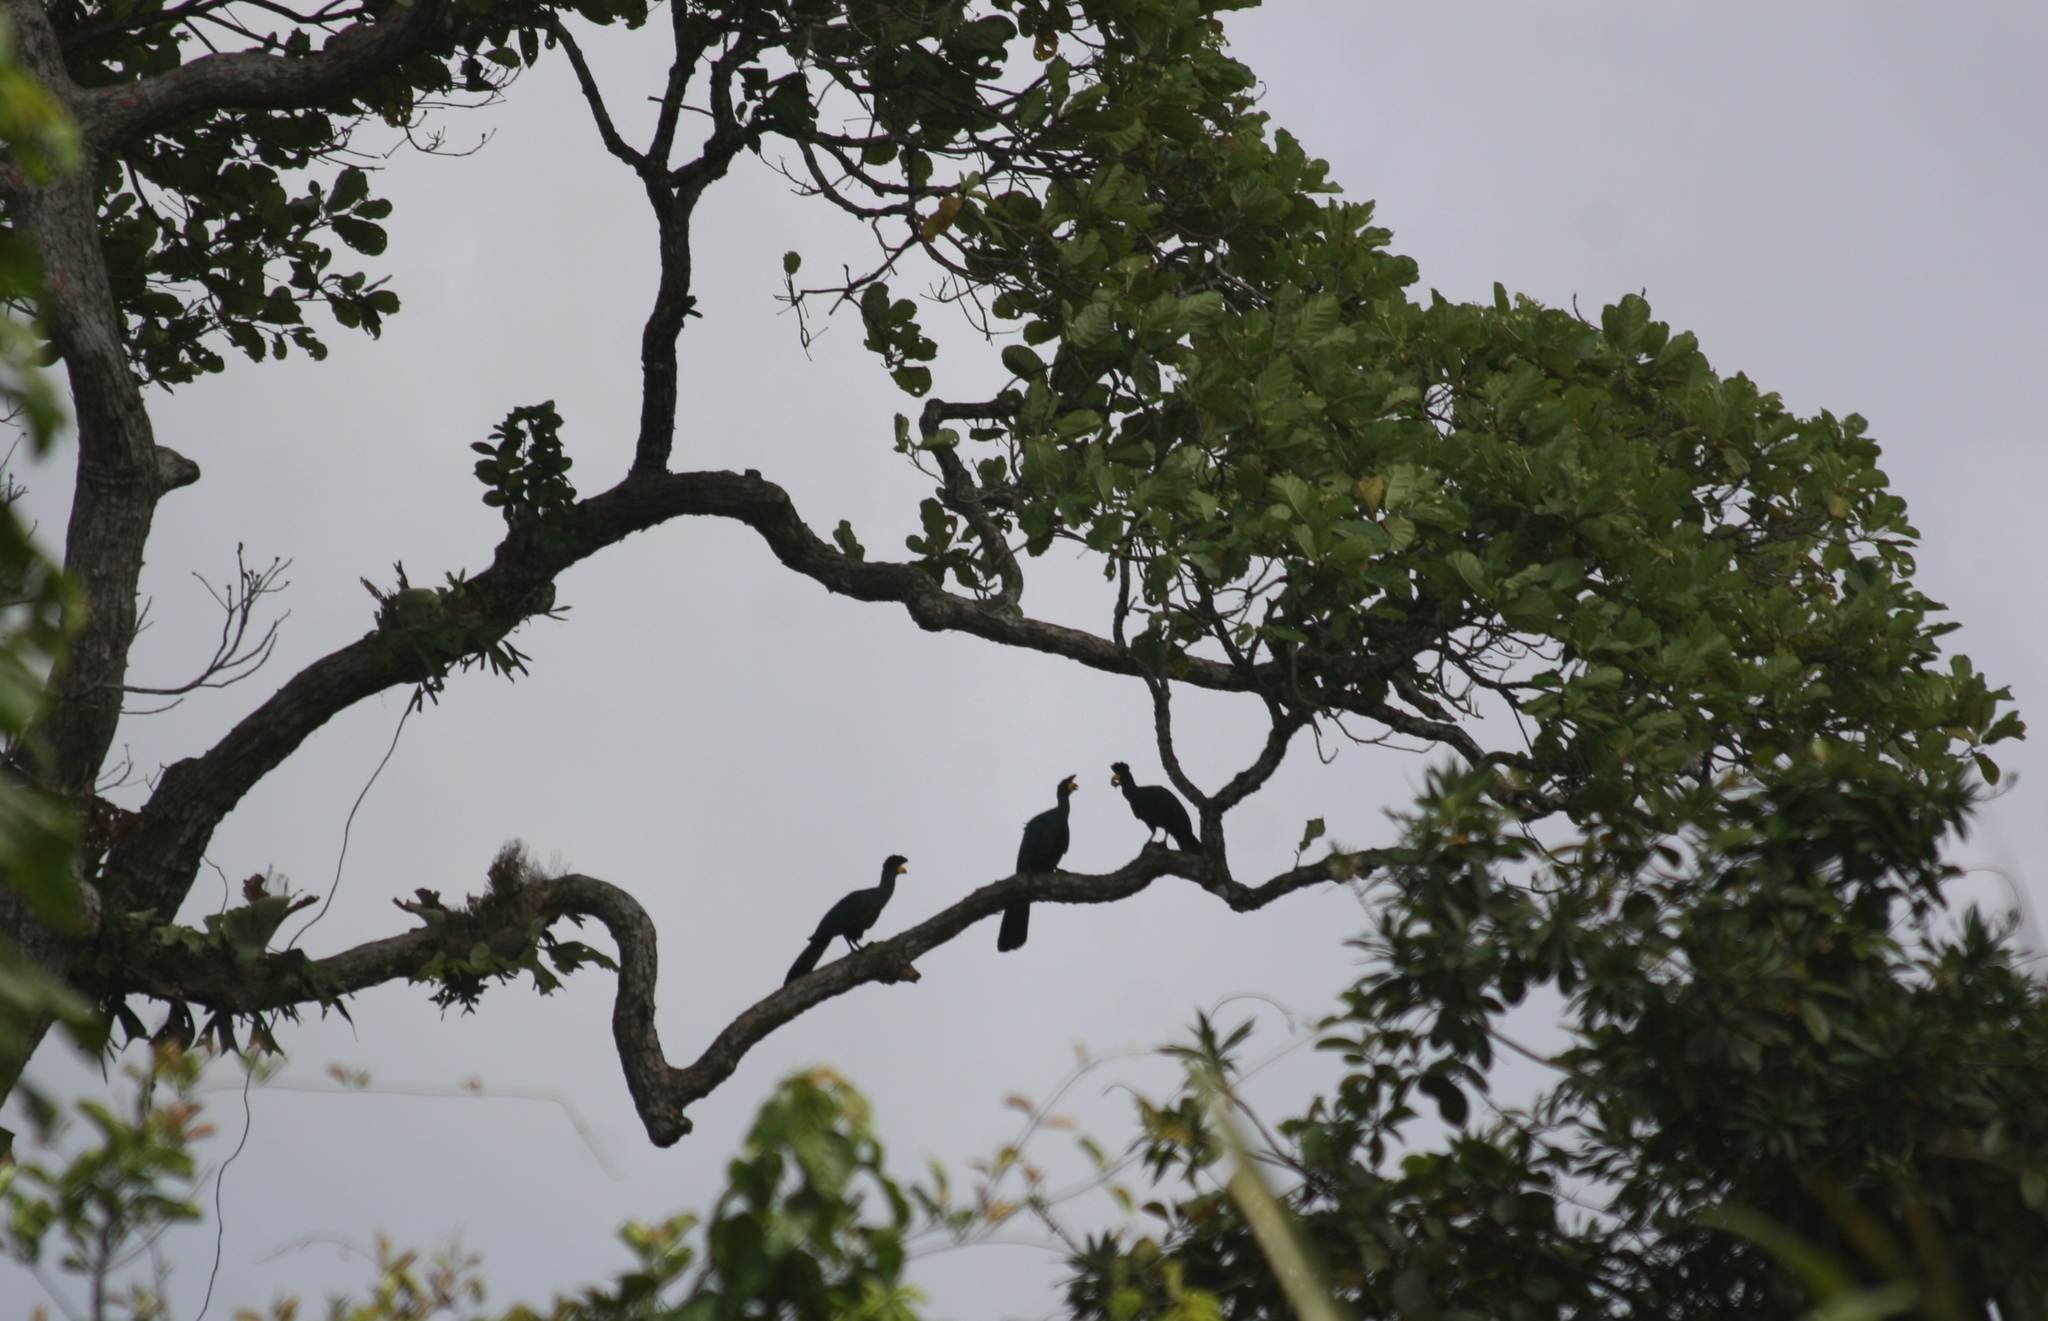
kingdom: Animalia
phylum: Chordata
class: Aves
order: Musophagiformes
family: Musophagidae
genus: Corythaeola
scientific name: Corythaeola cristata
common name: Great blue turaco
